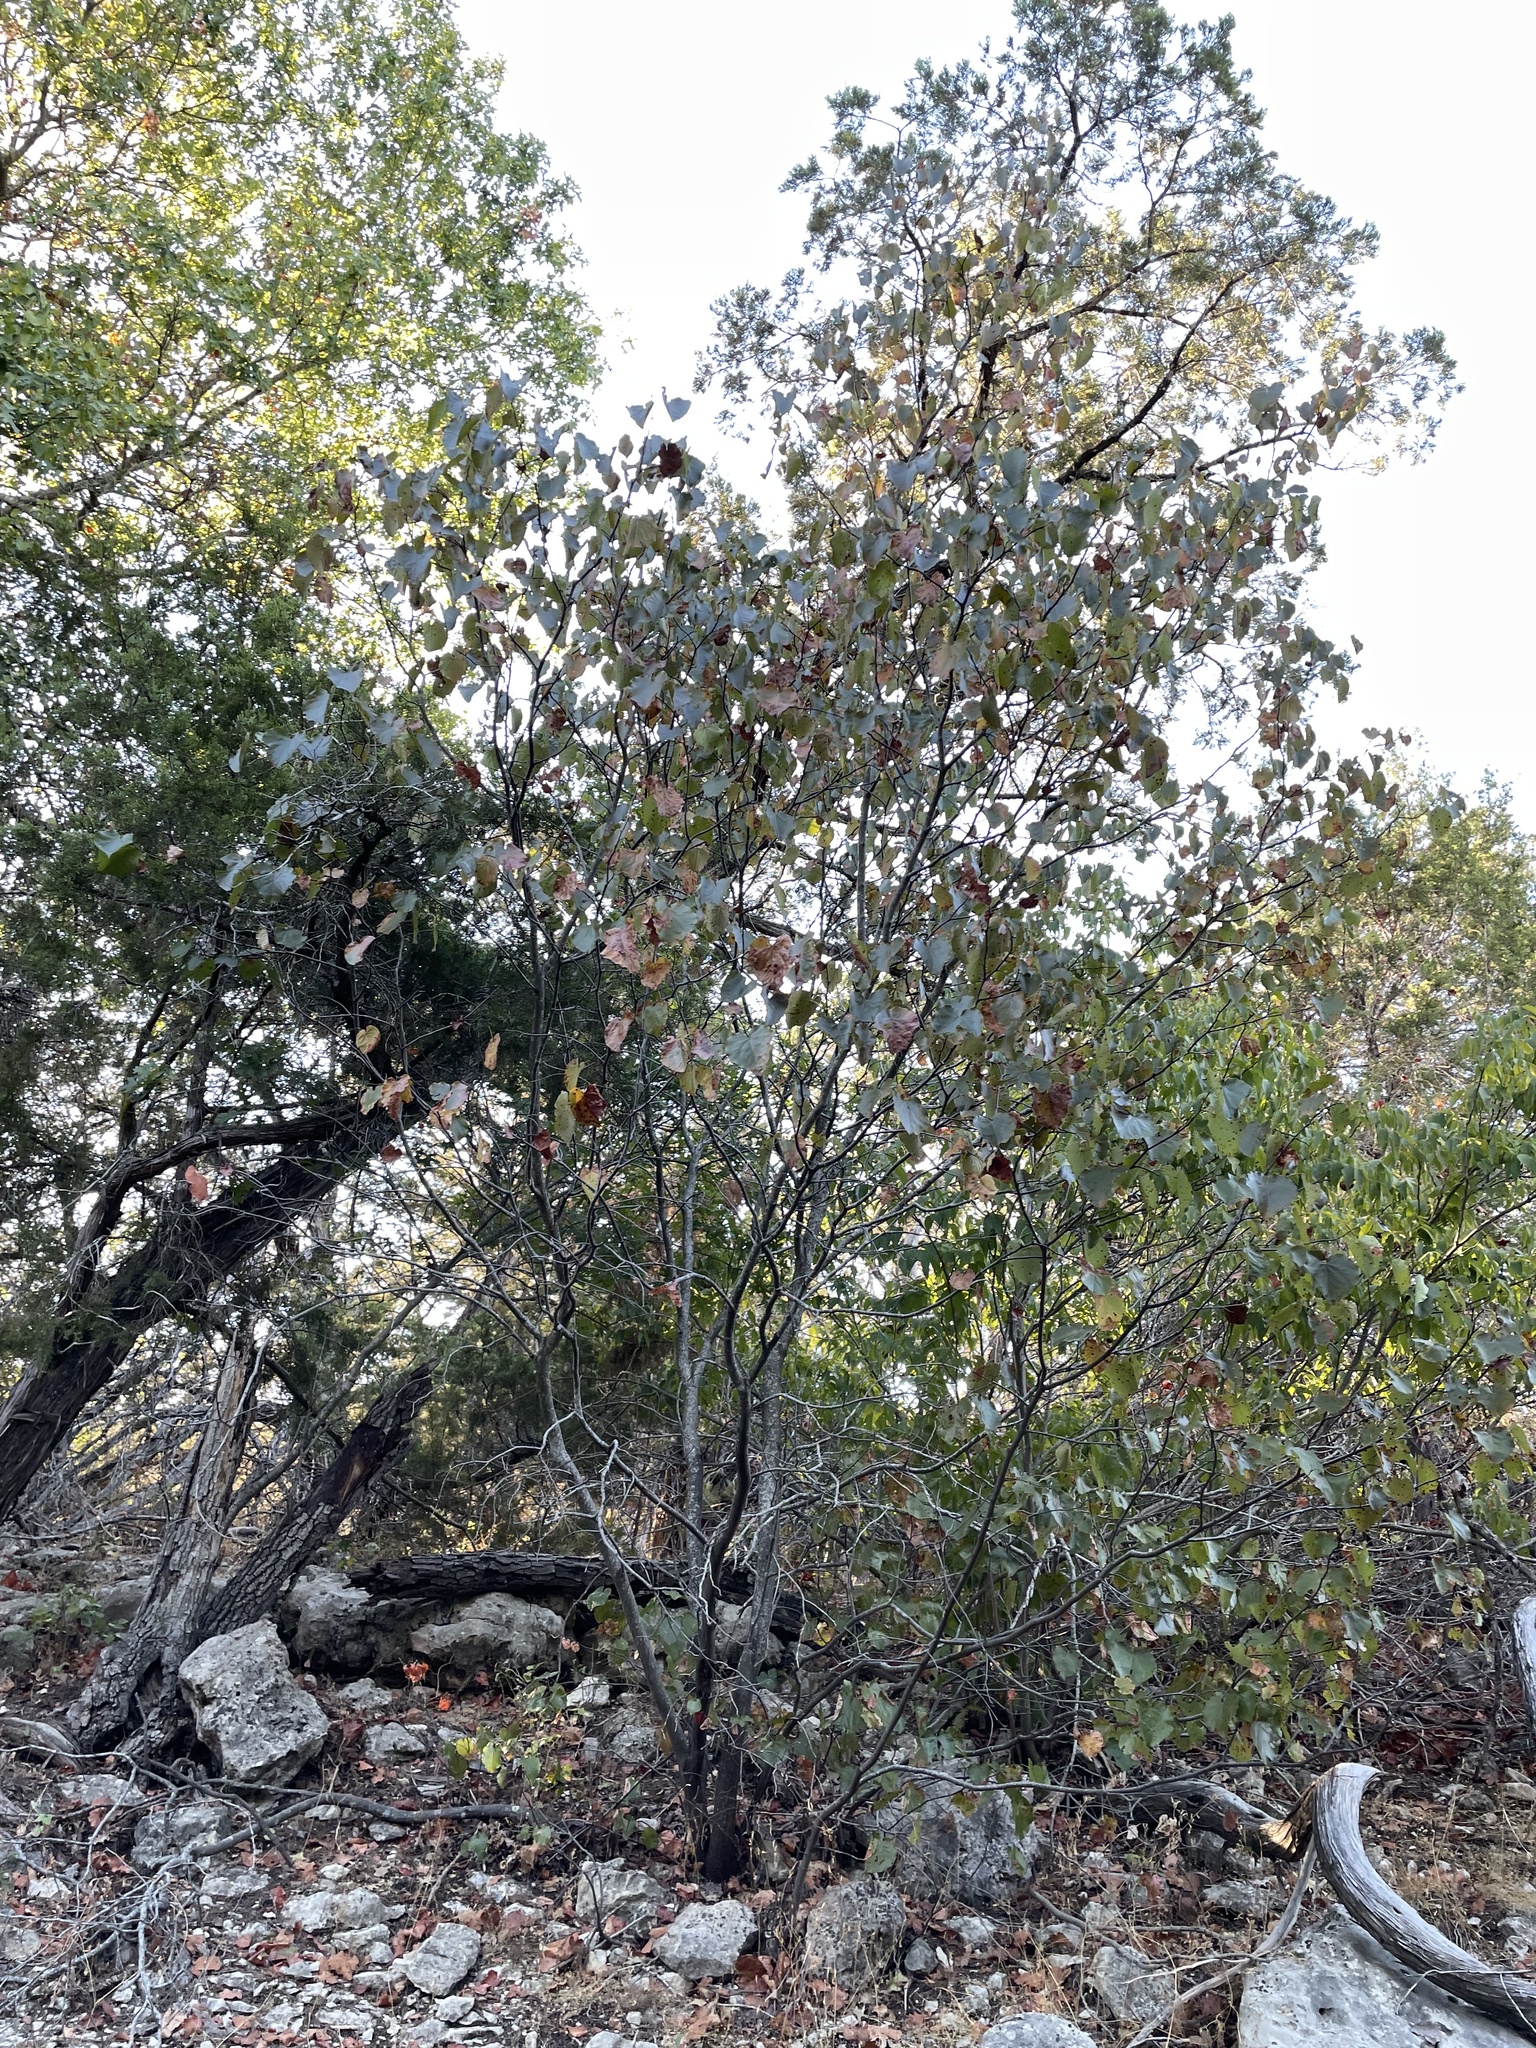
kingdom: Plantae
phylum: Tracheophyta
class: Magnoliopsida
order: Fabales
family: Fabaceae
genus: Cercis
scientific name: Cercis canadensis
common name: Eastern redbud
